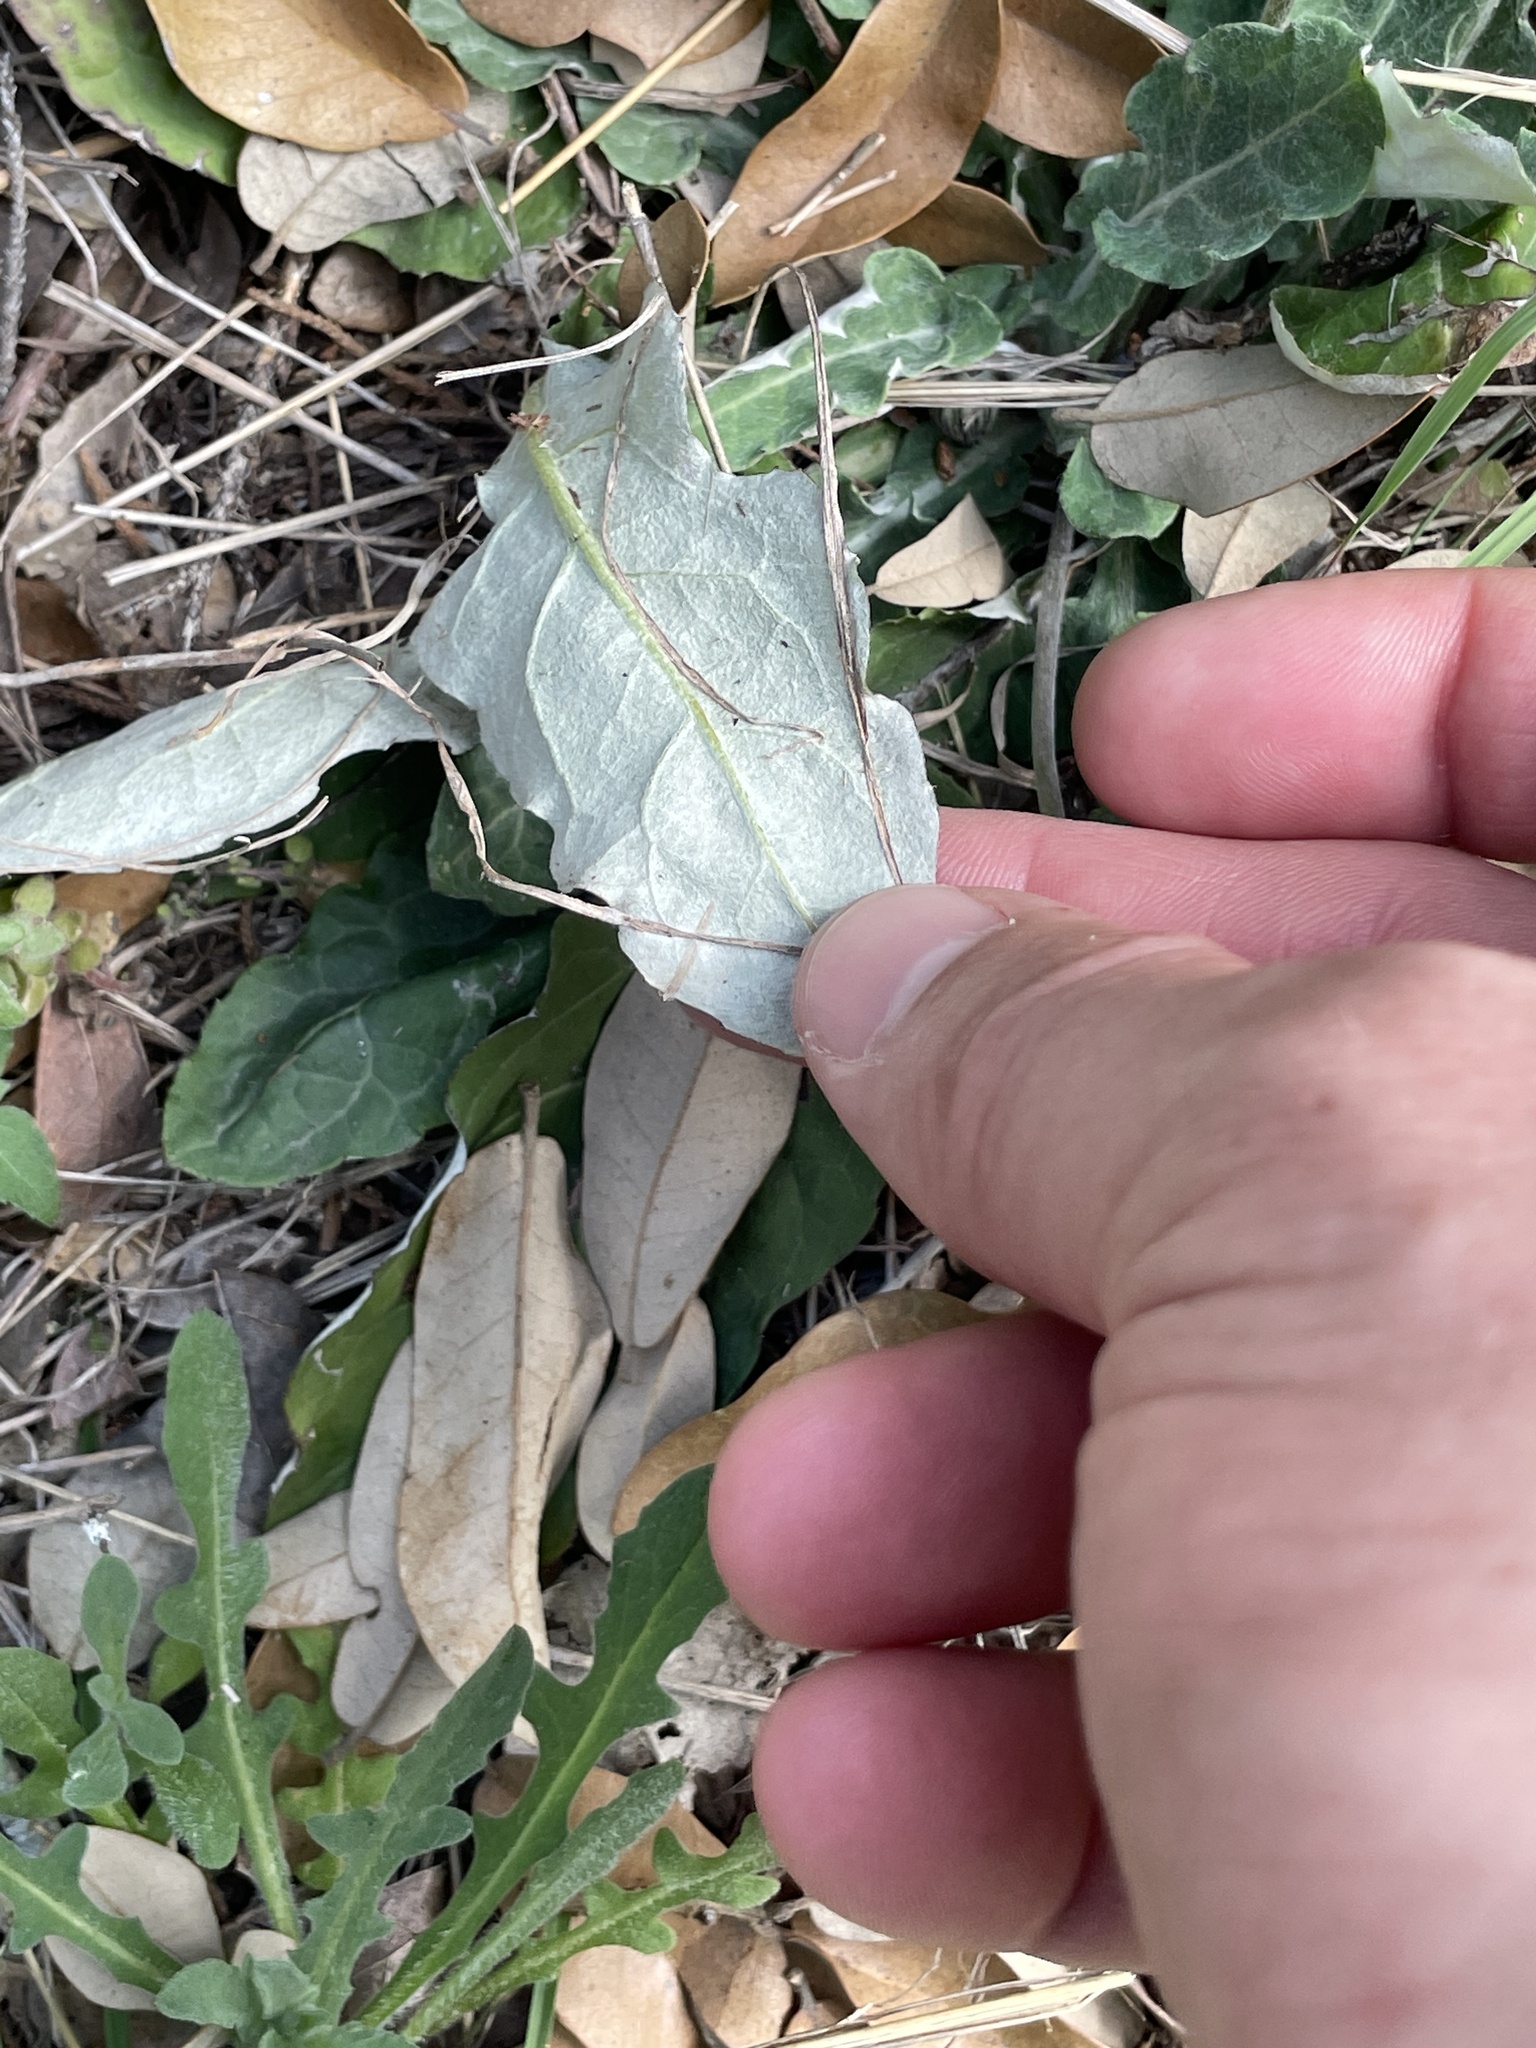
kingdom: Plantae
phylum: Tracheophyta
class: Magnoliopsida
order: Asterales
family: Asteraceae
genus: Chaptalia
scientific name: Chaptalia texana
